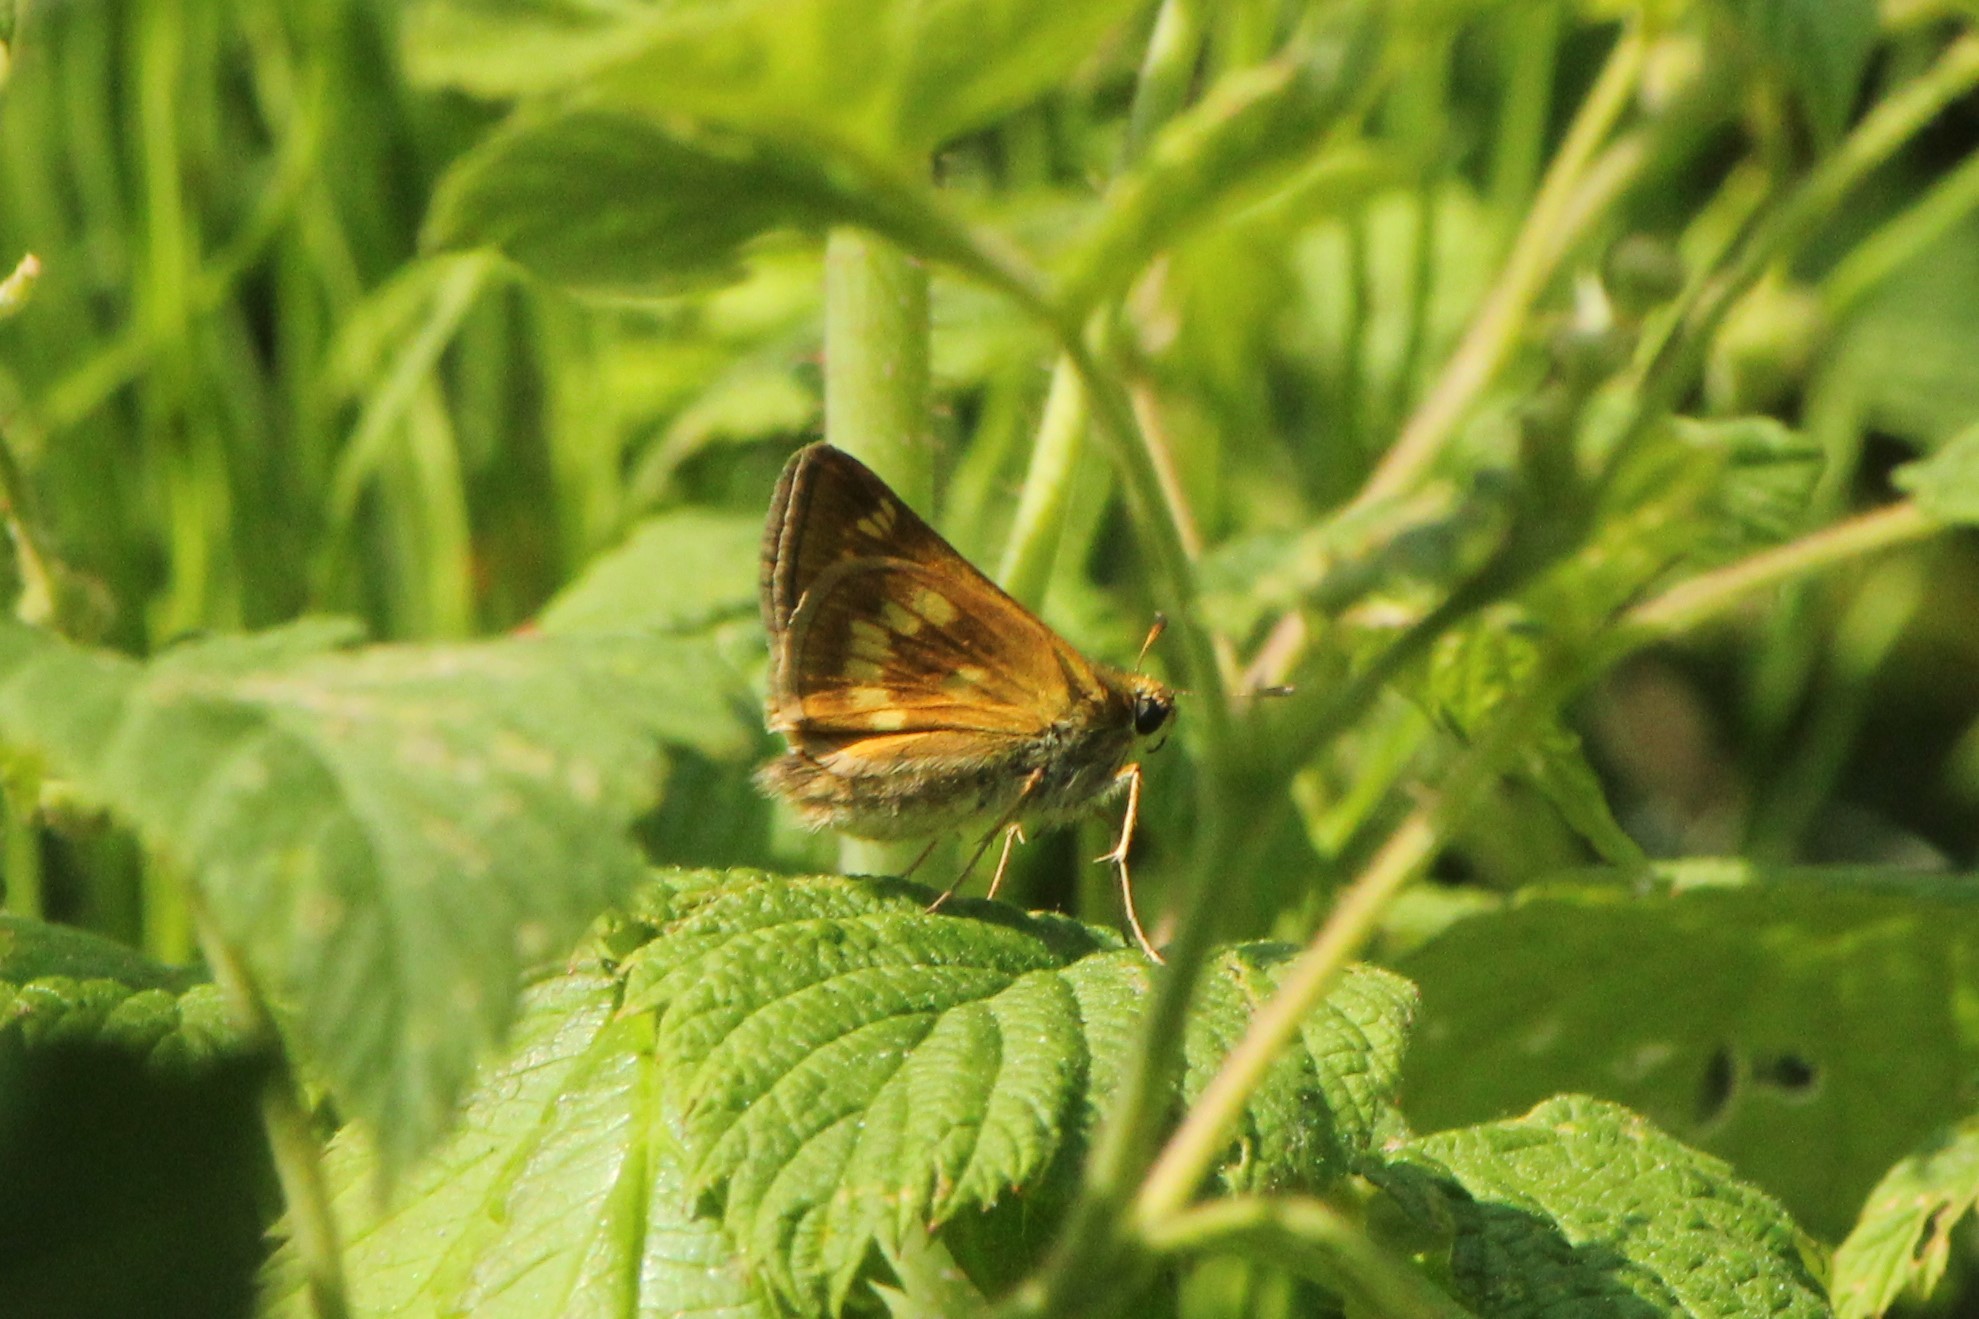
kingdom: Animalia
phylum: Arthropoda
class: Insecta
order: Lepidoptera
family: Hesperiidae
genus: Polites
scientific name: Polites mystic
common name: Long dash
